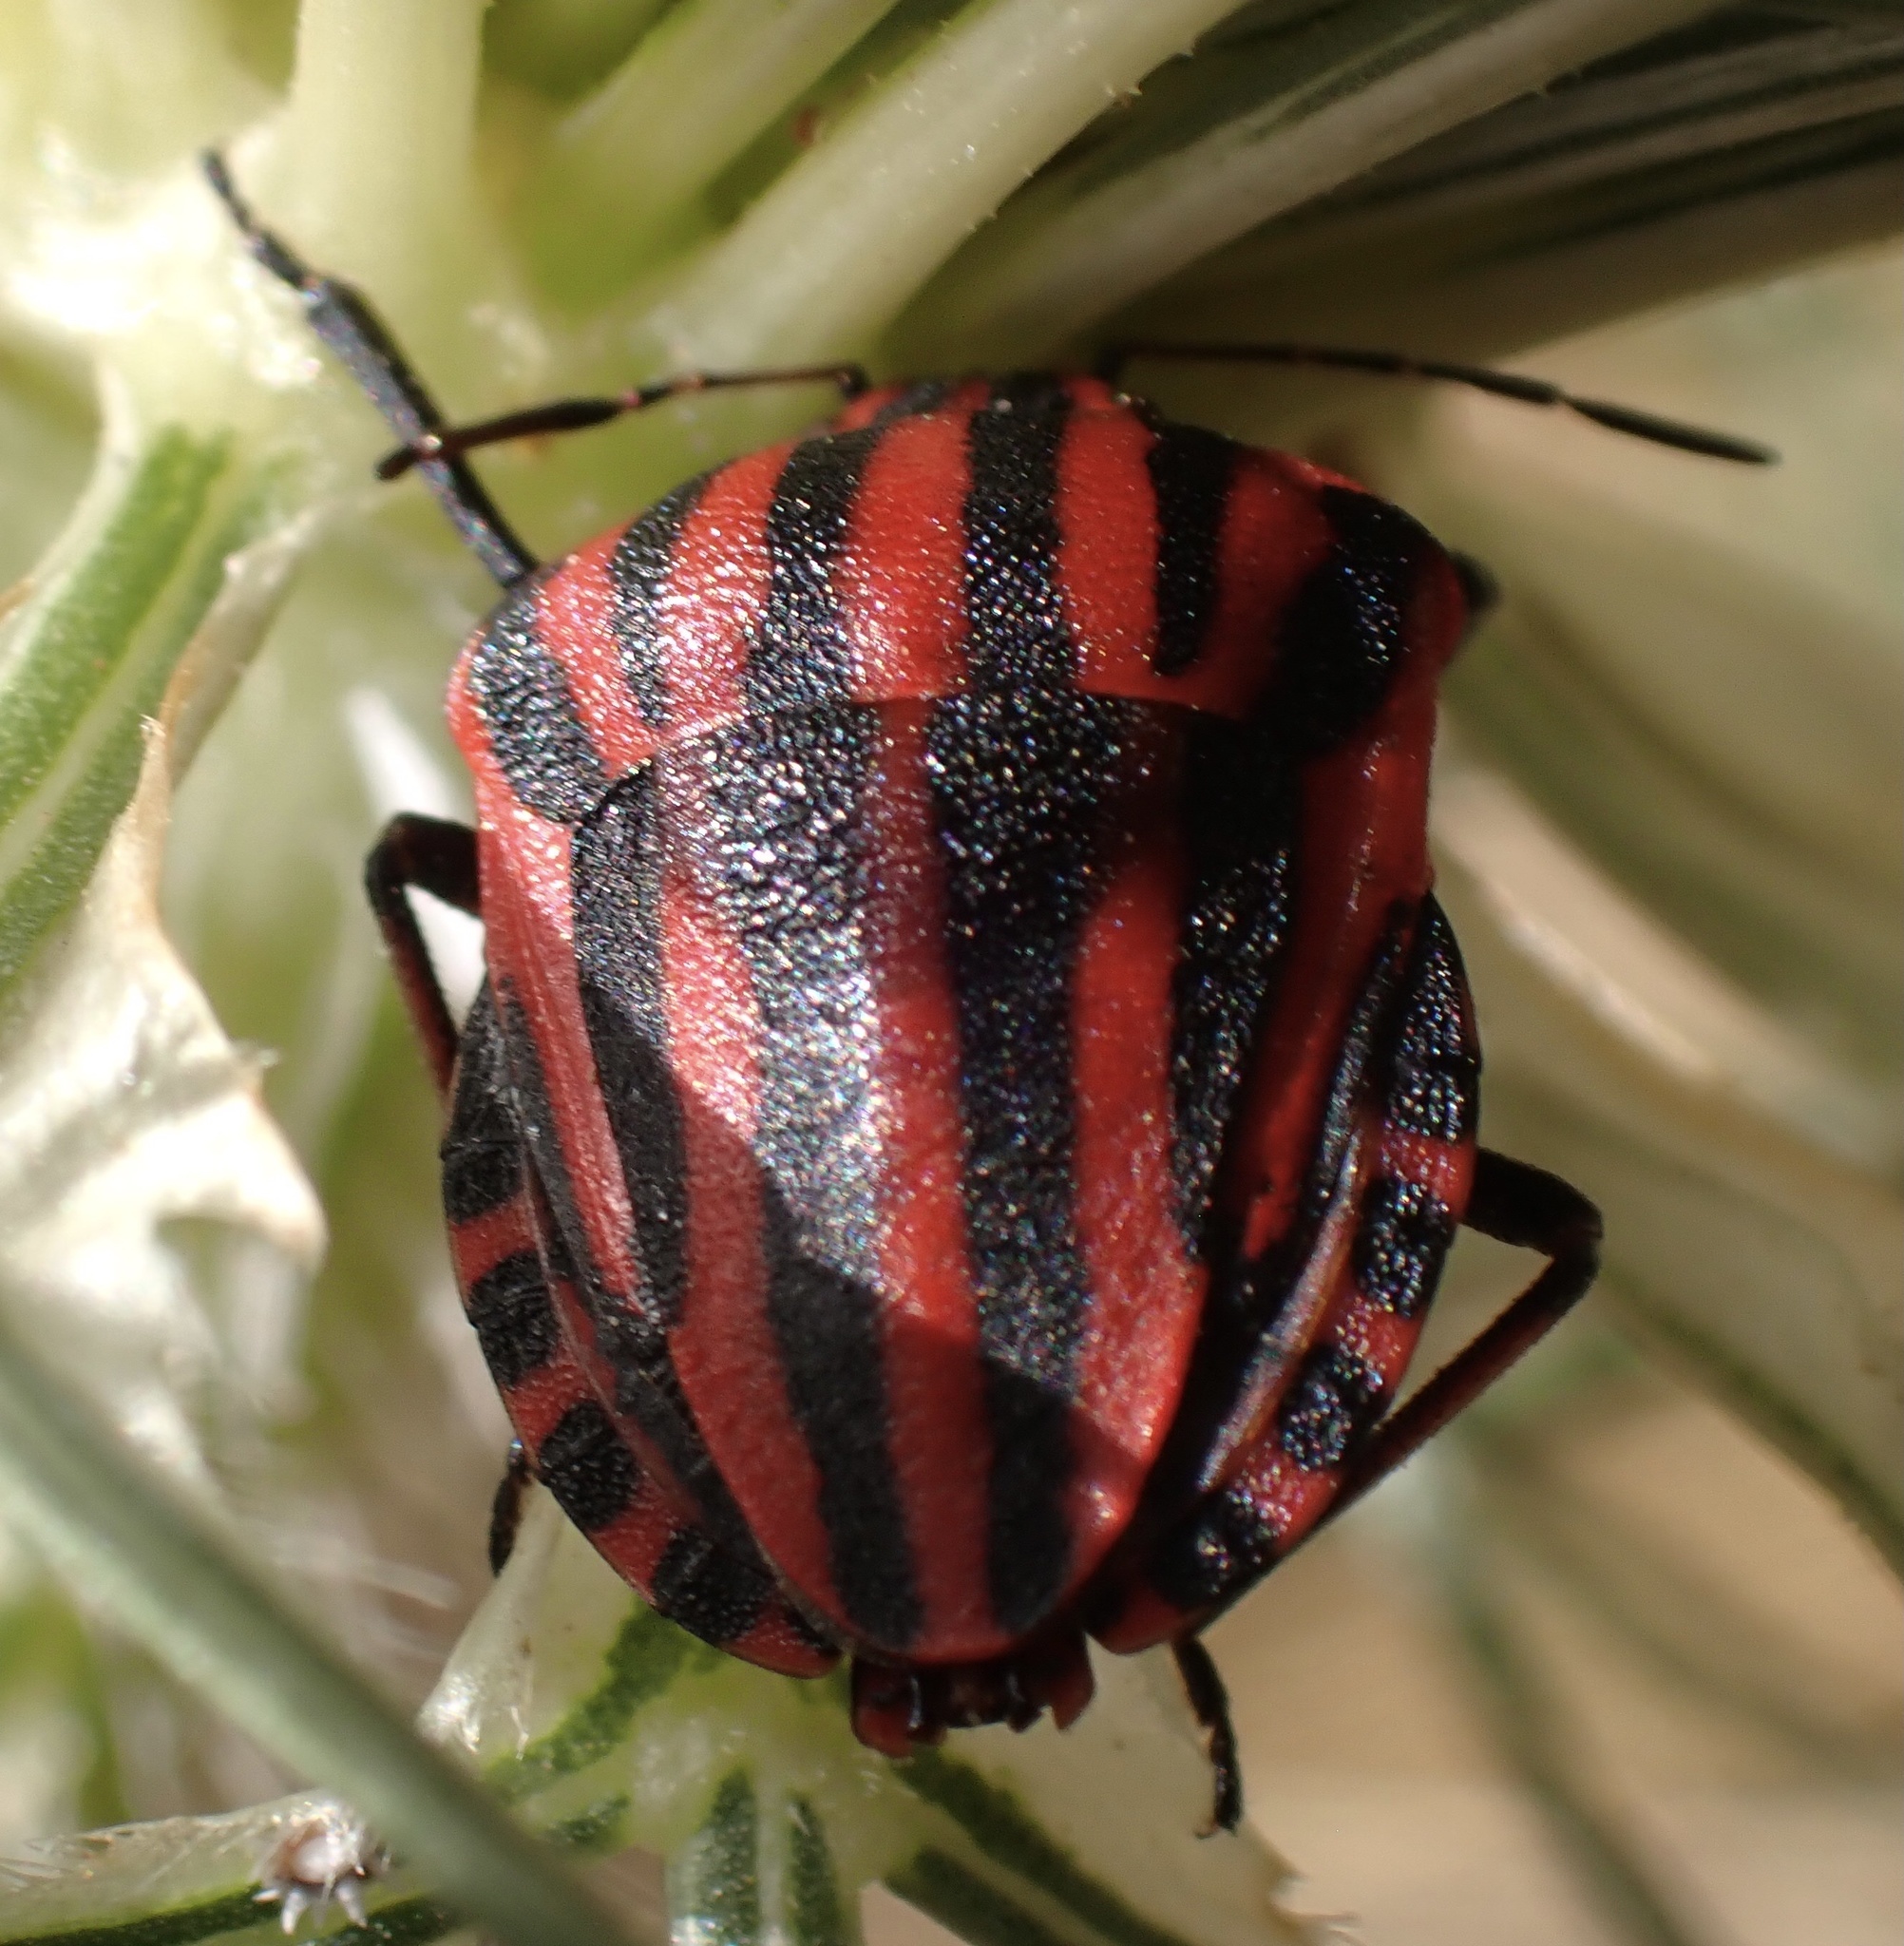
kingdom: Animalia
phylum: Arthropoda
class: Insecta
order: Hemiptera
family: Pentatomidae
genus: Graphosoma
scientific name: Graphosoma italicum
